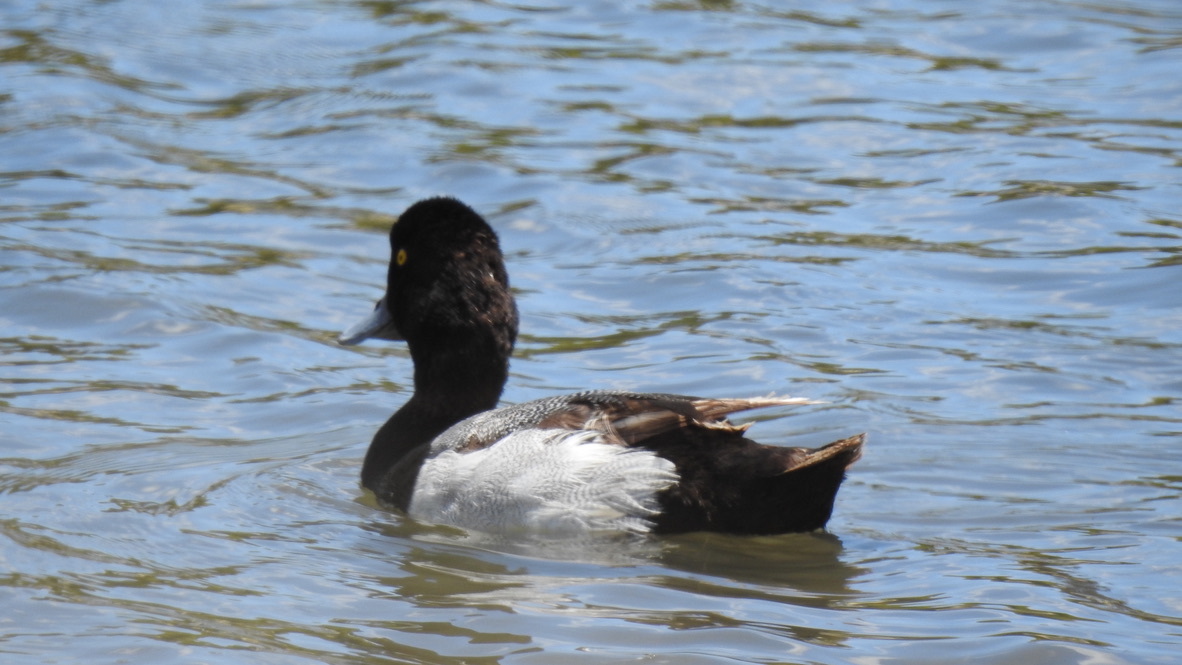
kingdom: Animalia
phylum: Chordata
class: Aves
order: Anseriformes
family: Anatidae
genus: Aythya
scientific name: Aythya affinis
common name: Lesser scaup
